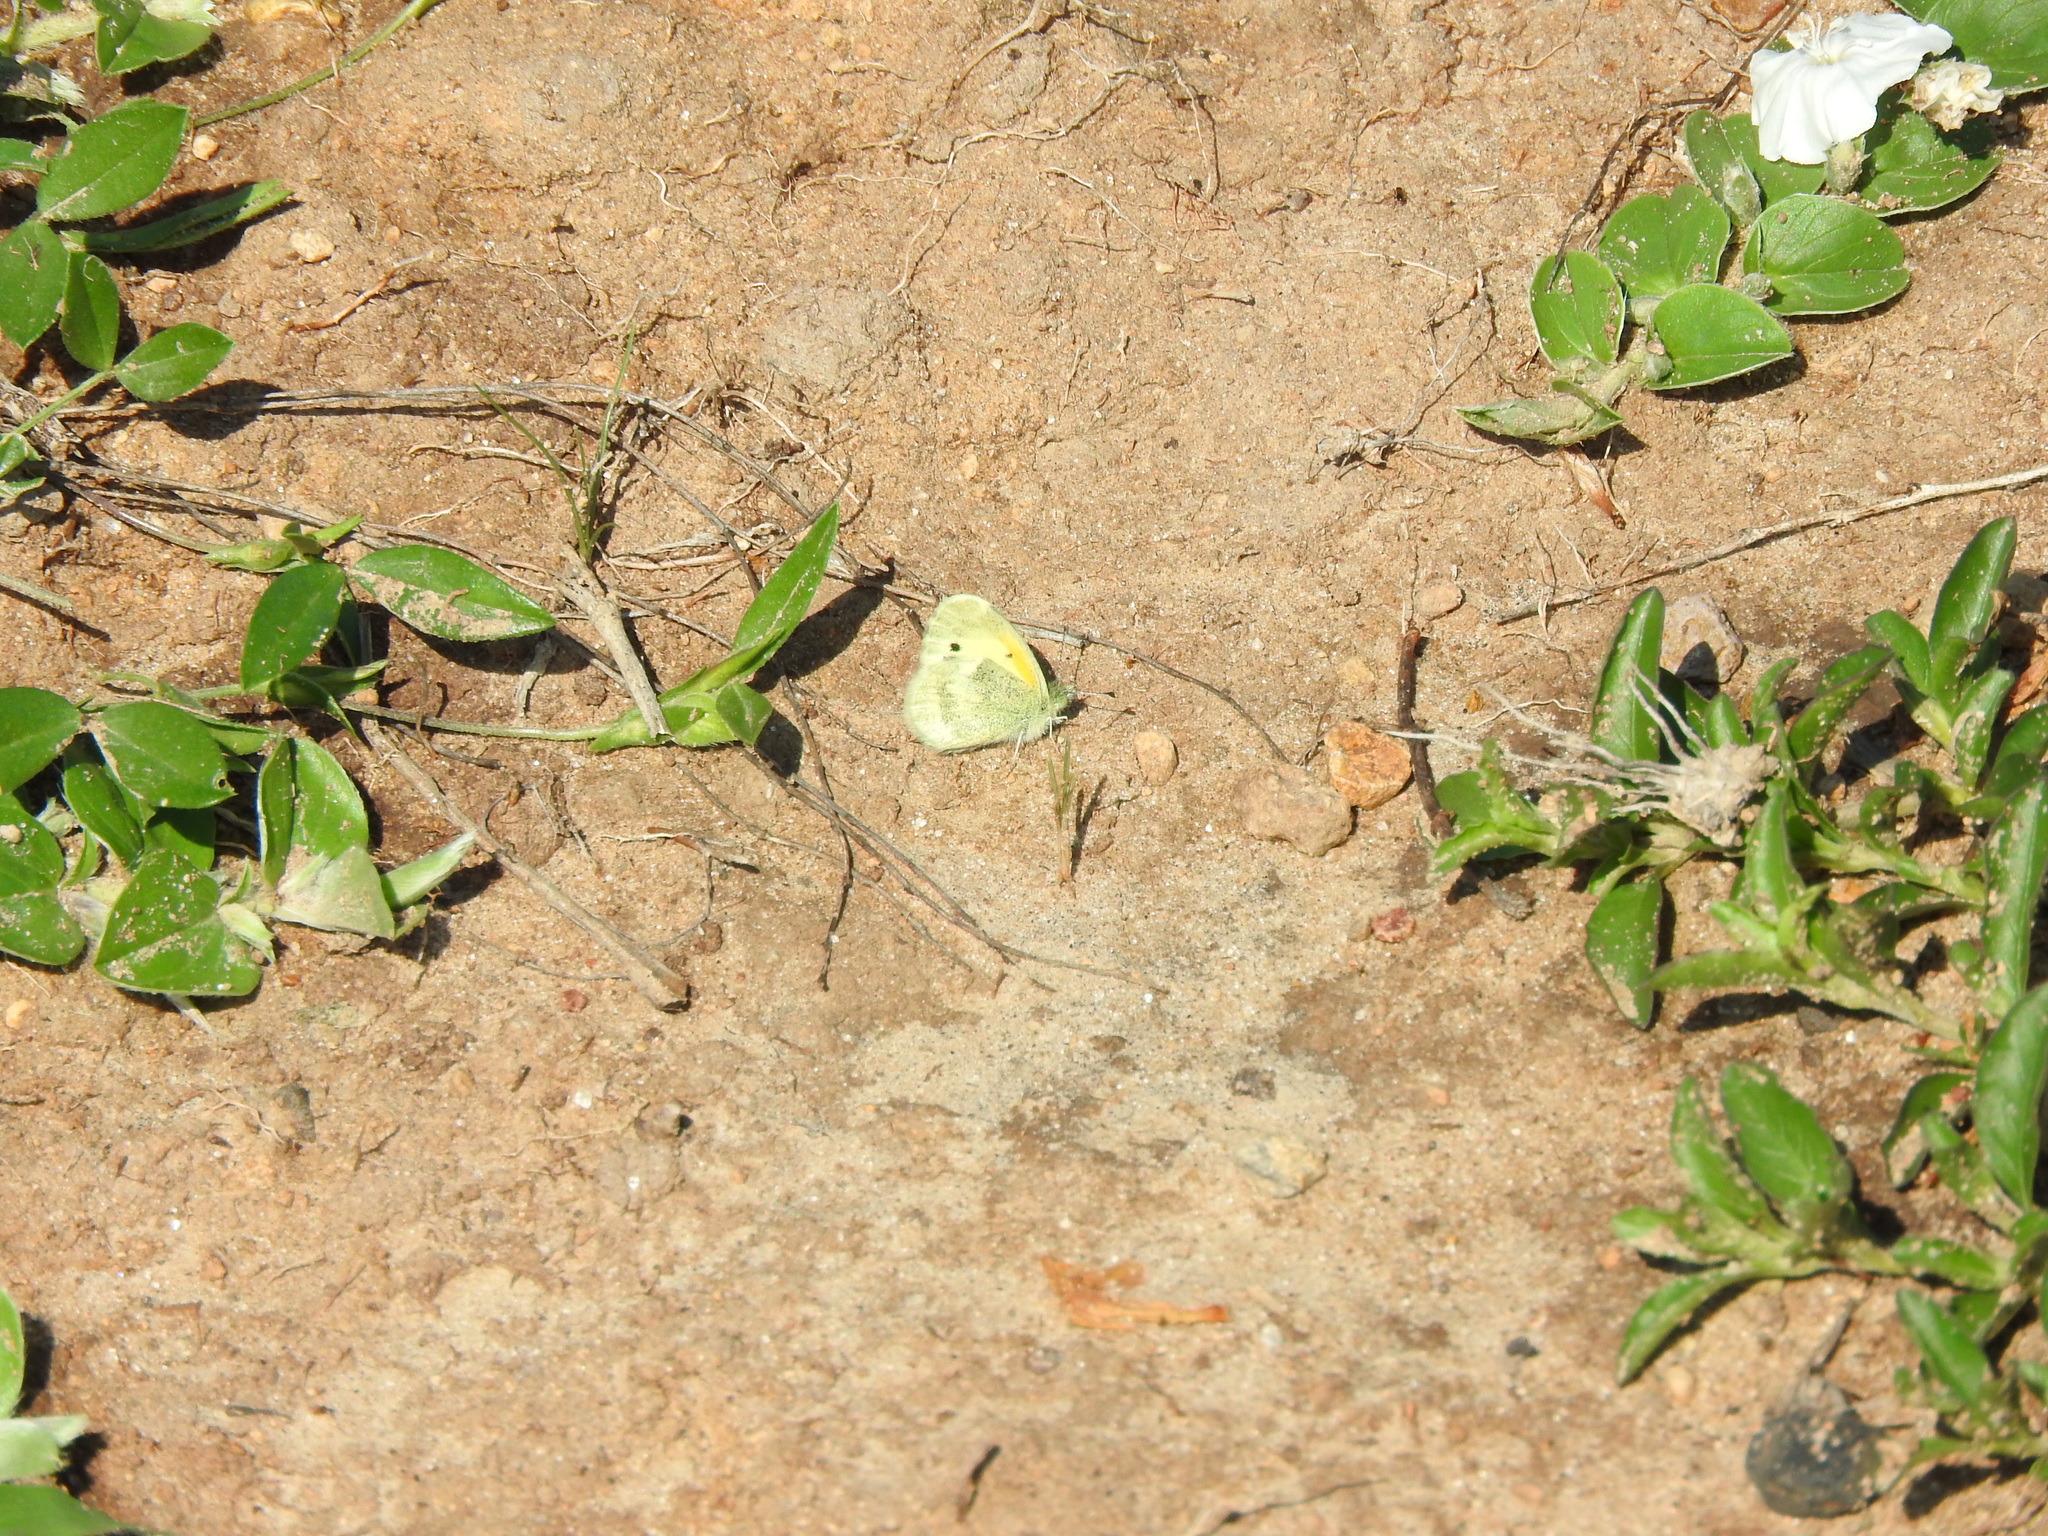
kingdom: Animalia
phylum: Arthropoda
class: Insecta
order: Lepidoptera
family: Pieridae
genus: Nathalis
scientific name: Nathalis iole
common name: Dainty sulphur
